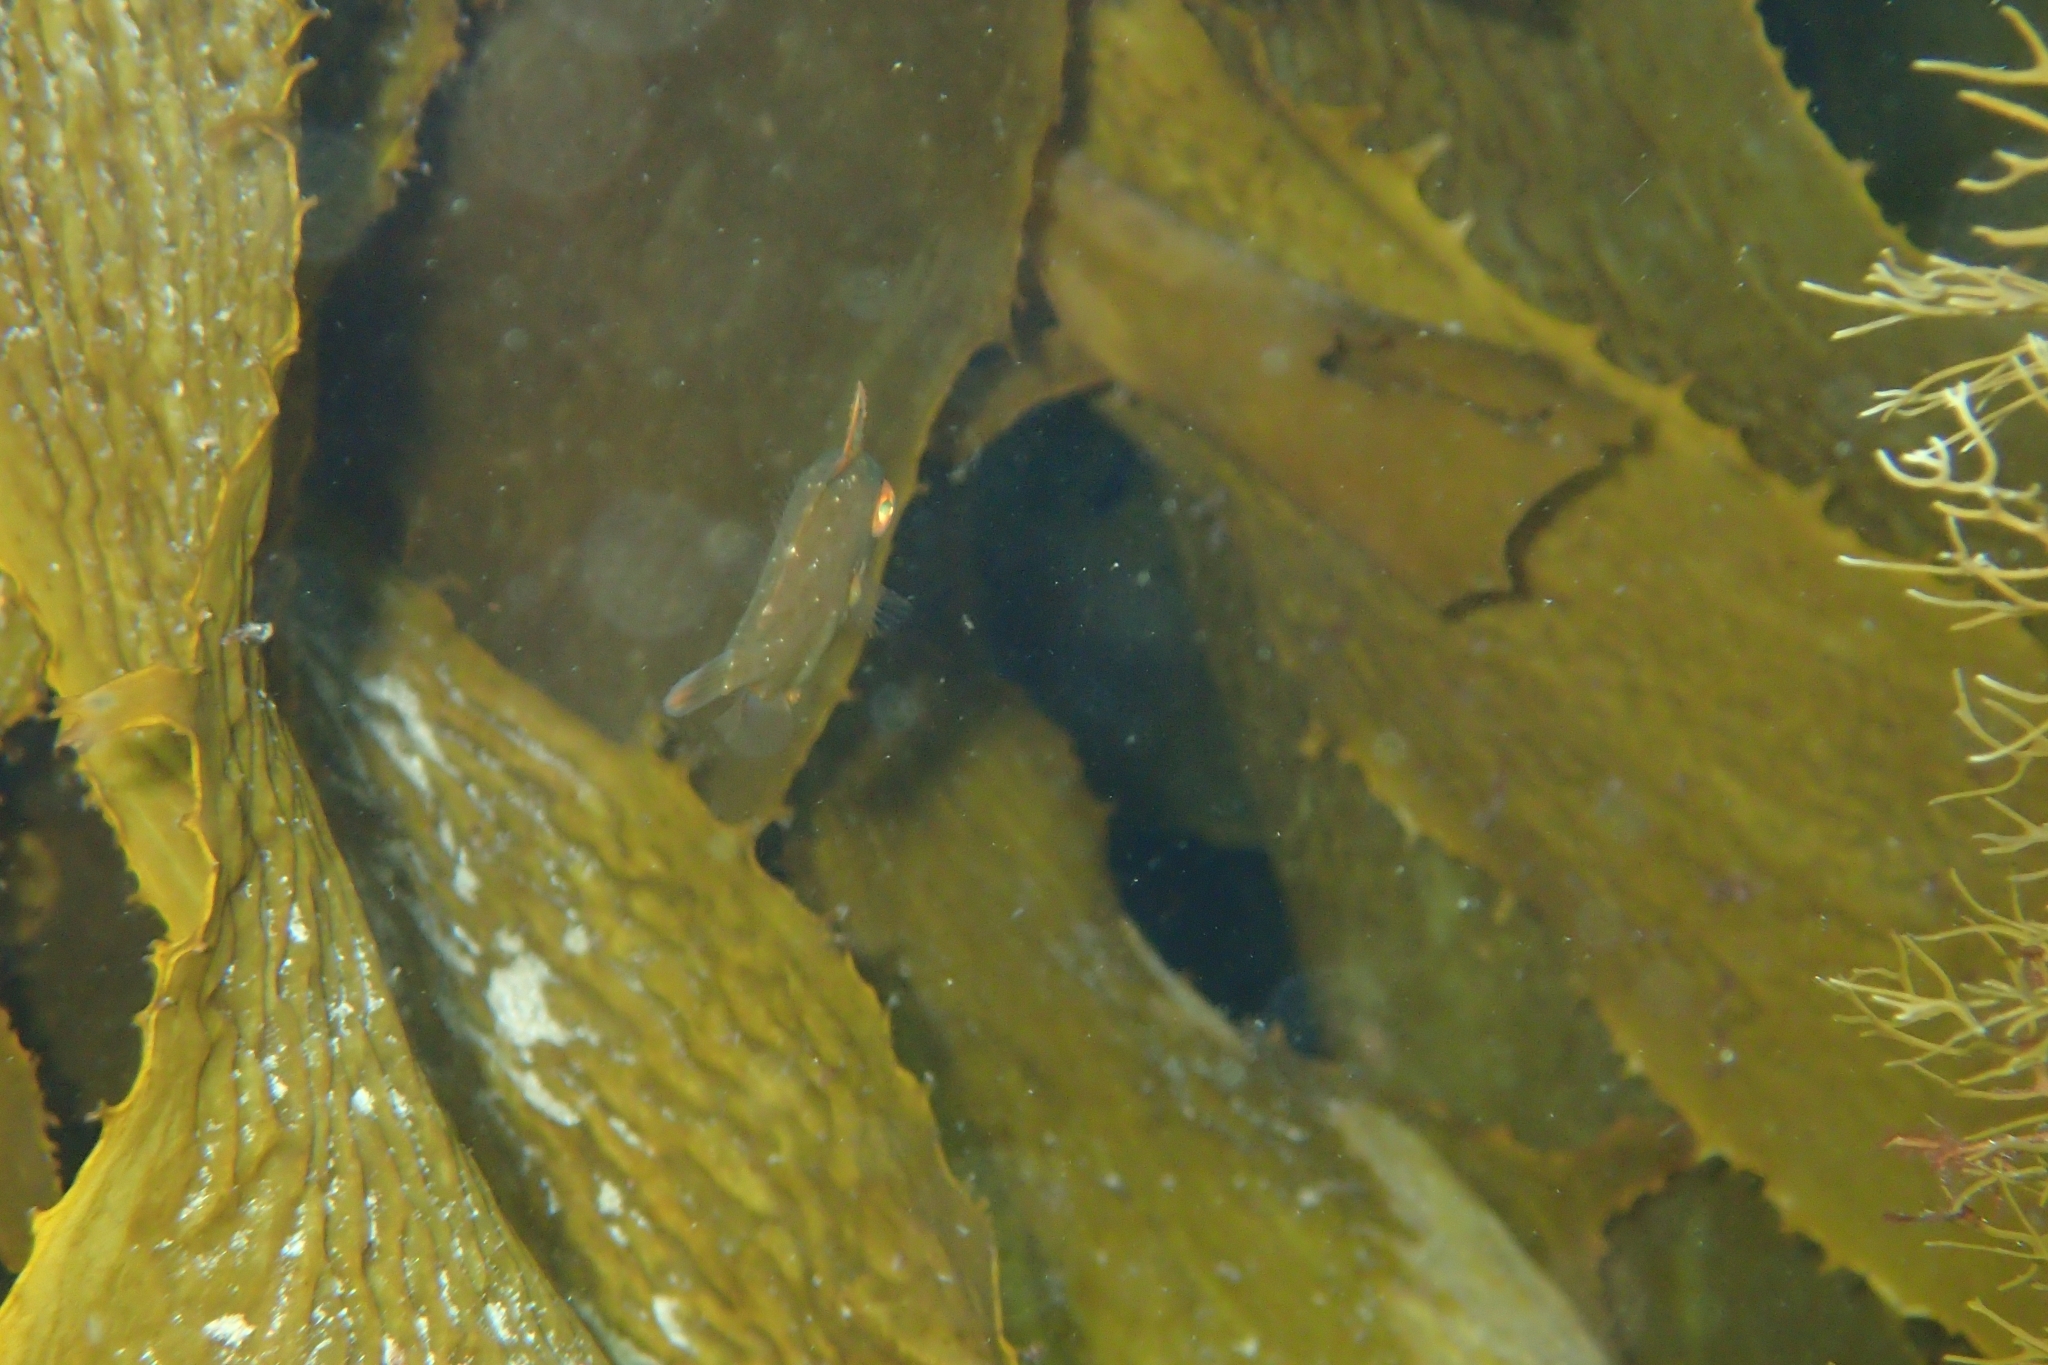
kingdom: Animalia
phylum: Chordata
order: Tetraodontiformes
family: Monacanthidae
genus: Meuschenia
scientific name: Meuschenia scaber
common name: Cosmopolitan leatherjacket
